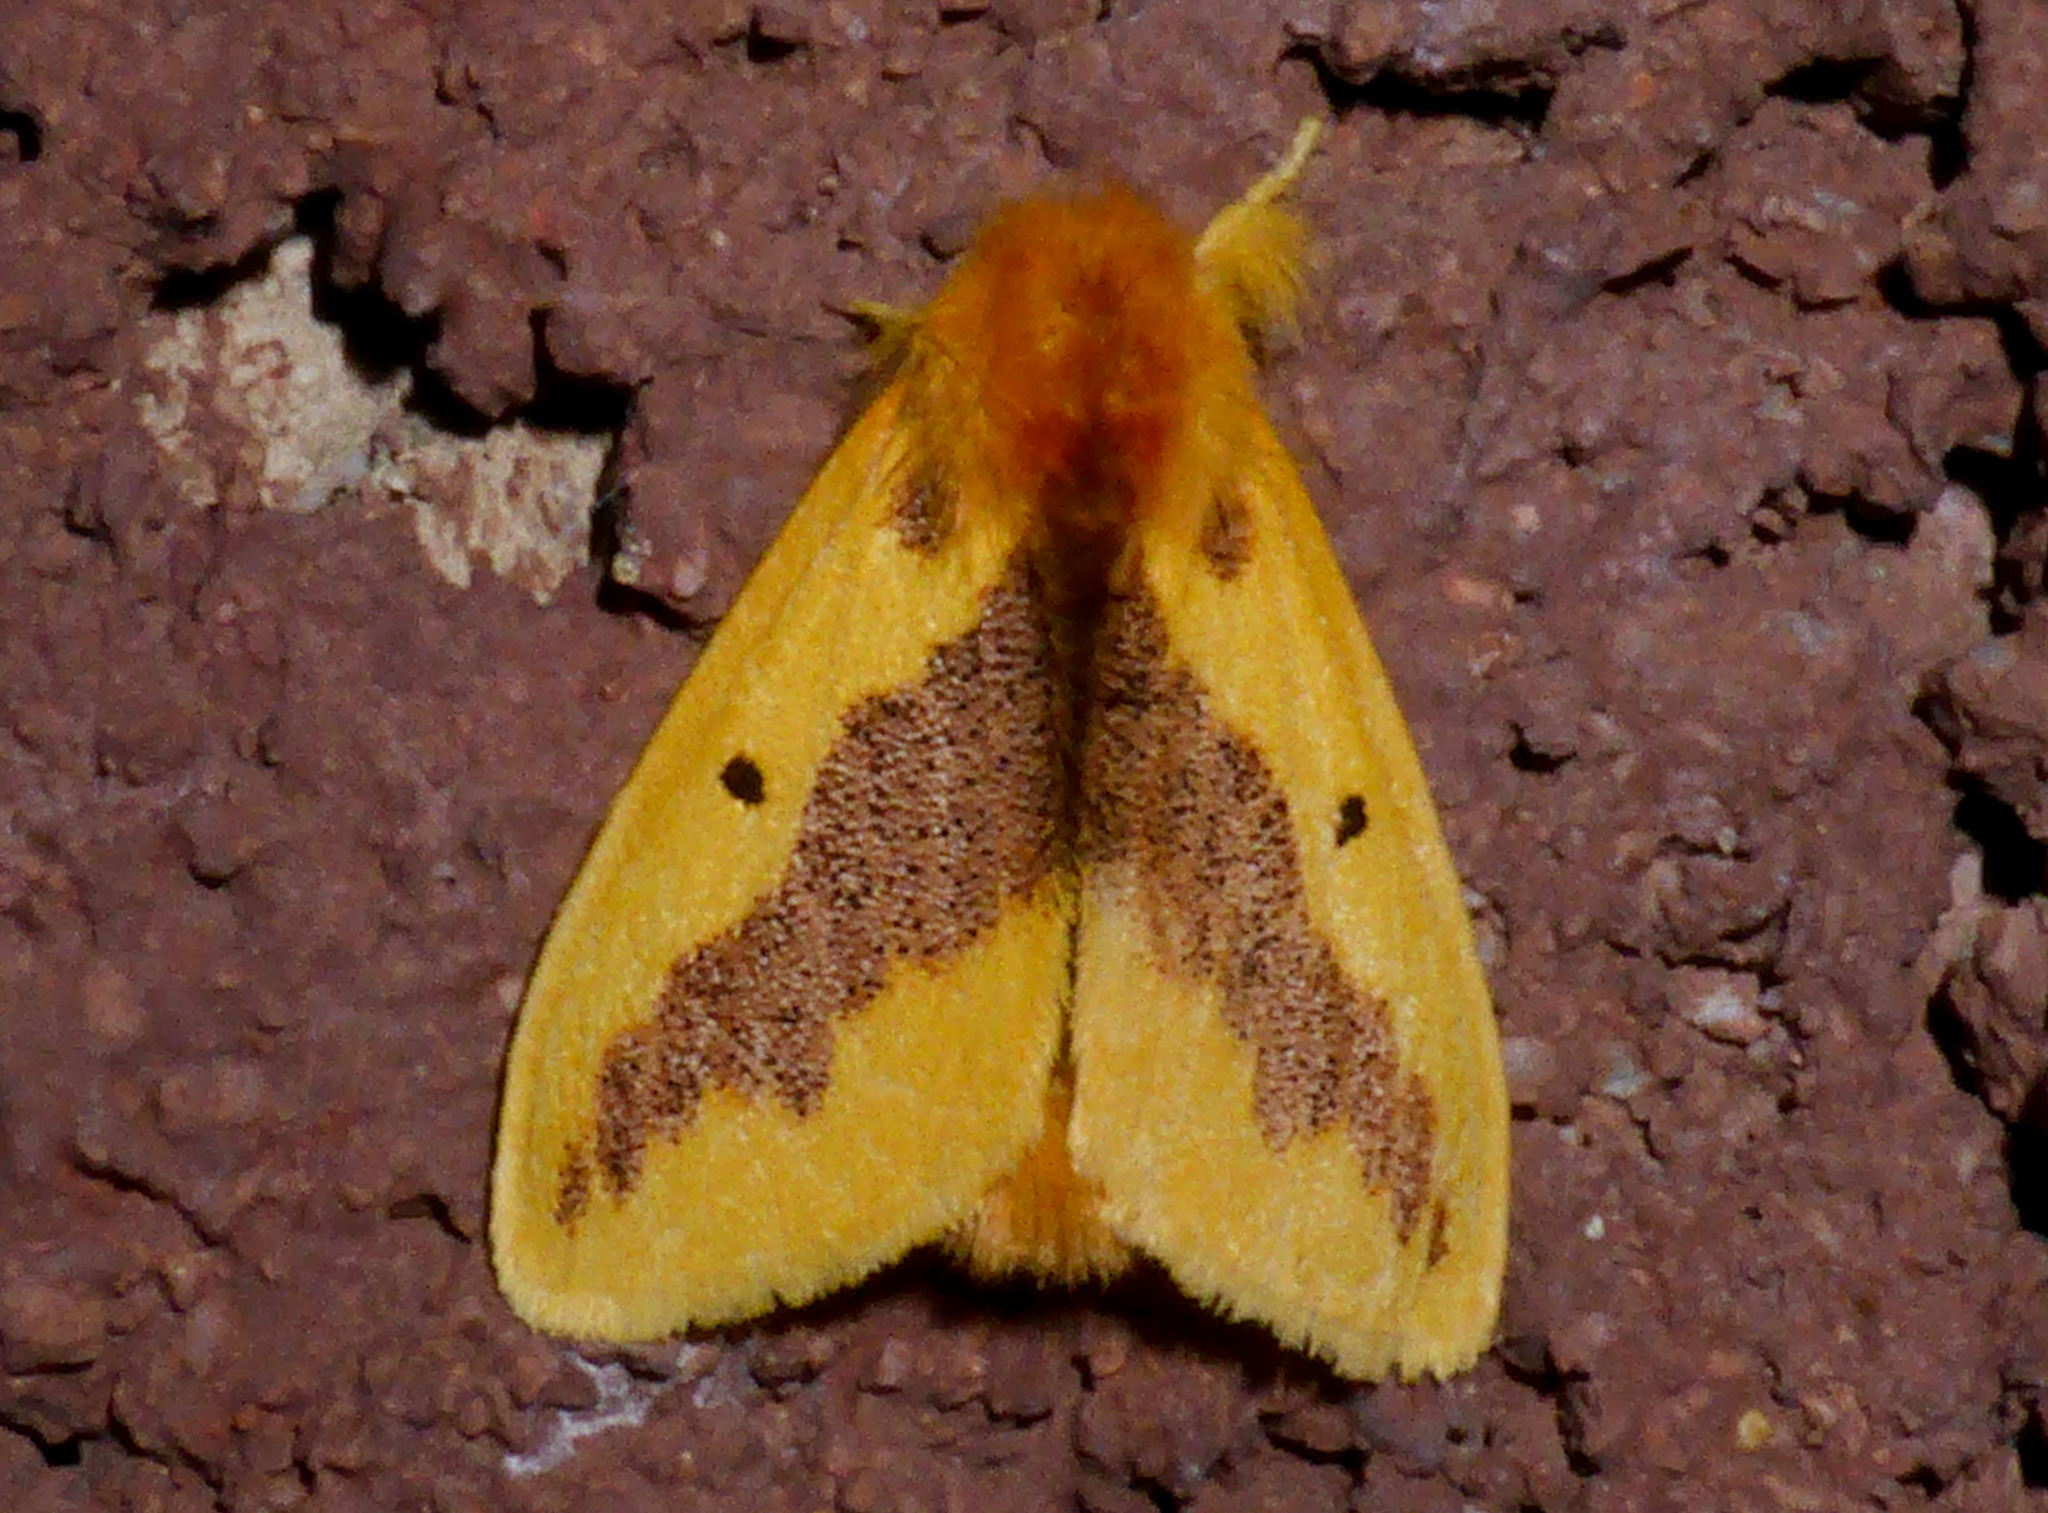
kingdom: Animalia
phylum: Arthropoda
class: Insecta
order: Lepidoptera
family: Erebidae
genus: Euproctis
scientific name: Euproctis staudingeri
